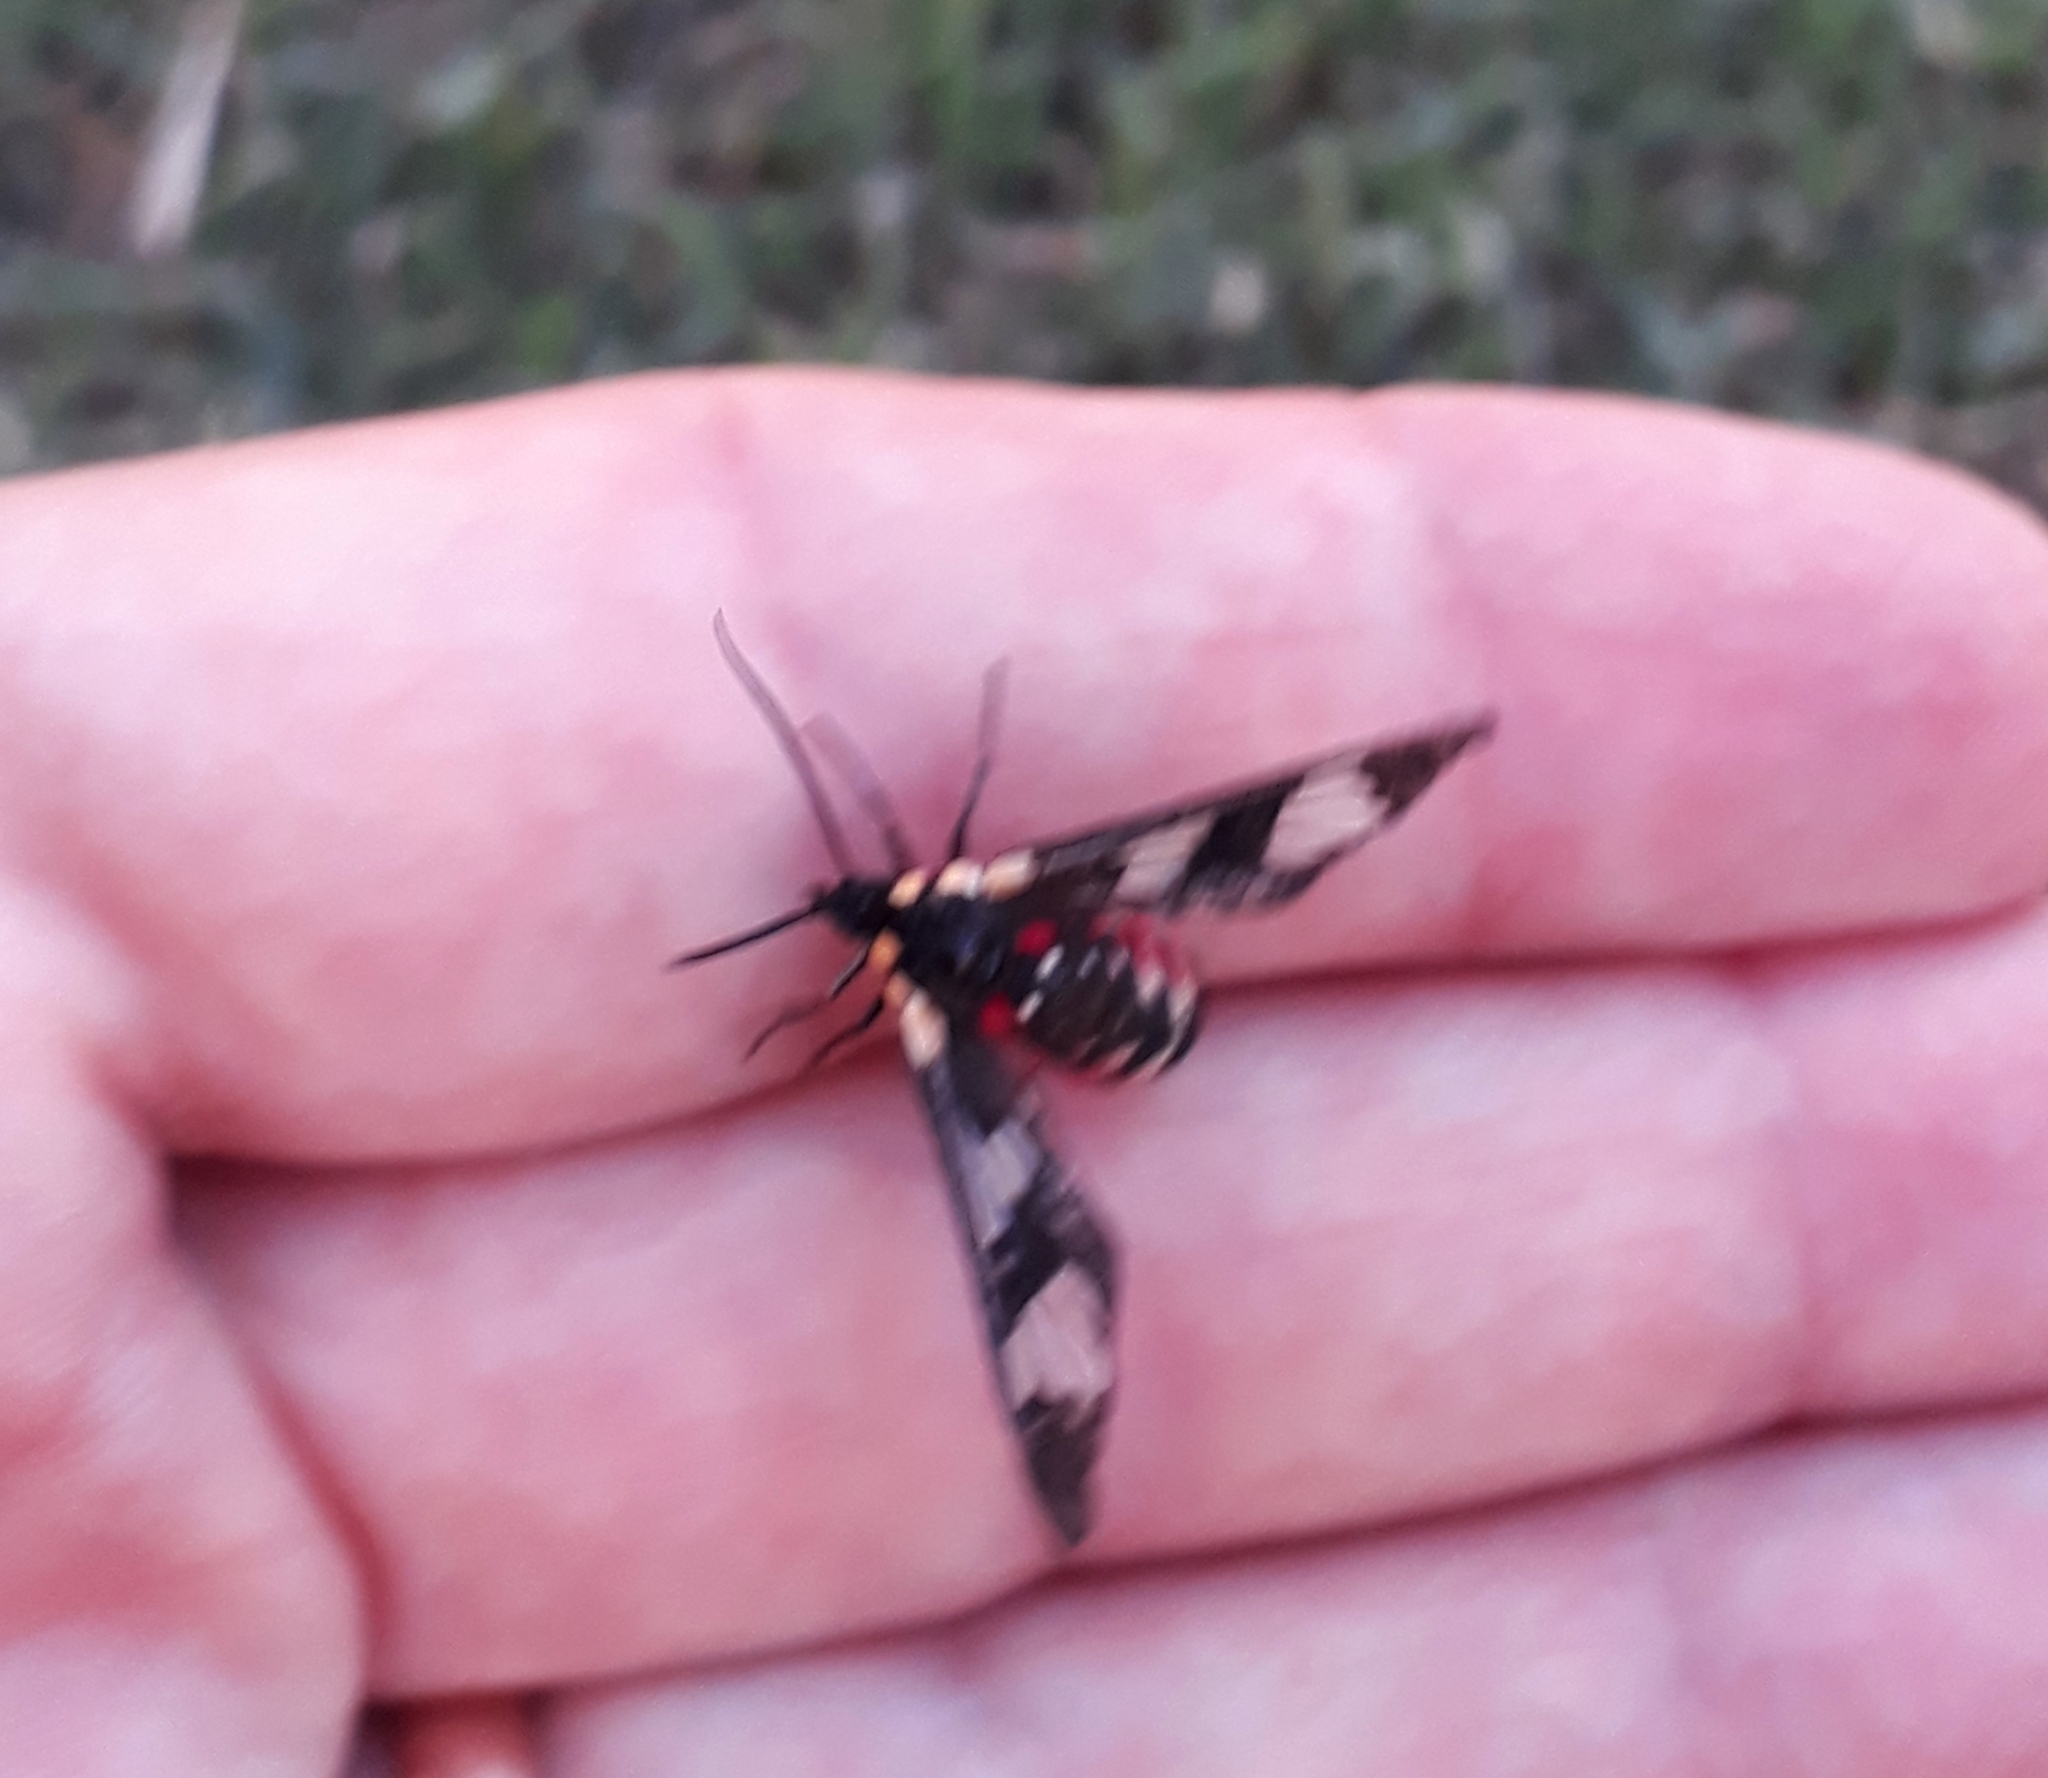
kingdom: Animalia
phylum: Arthropoda
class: Insecta
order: Lepidoptera
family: Erebidae
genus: Eurata
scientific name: Eurata hermione
